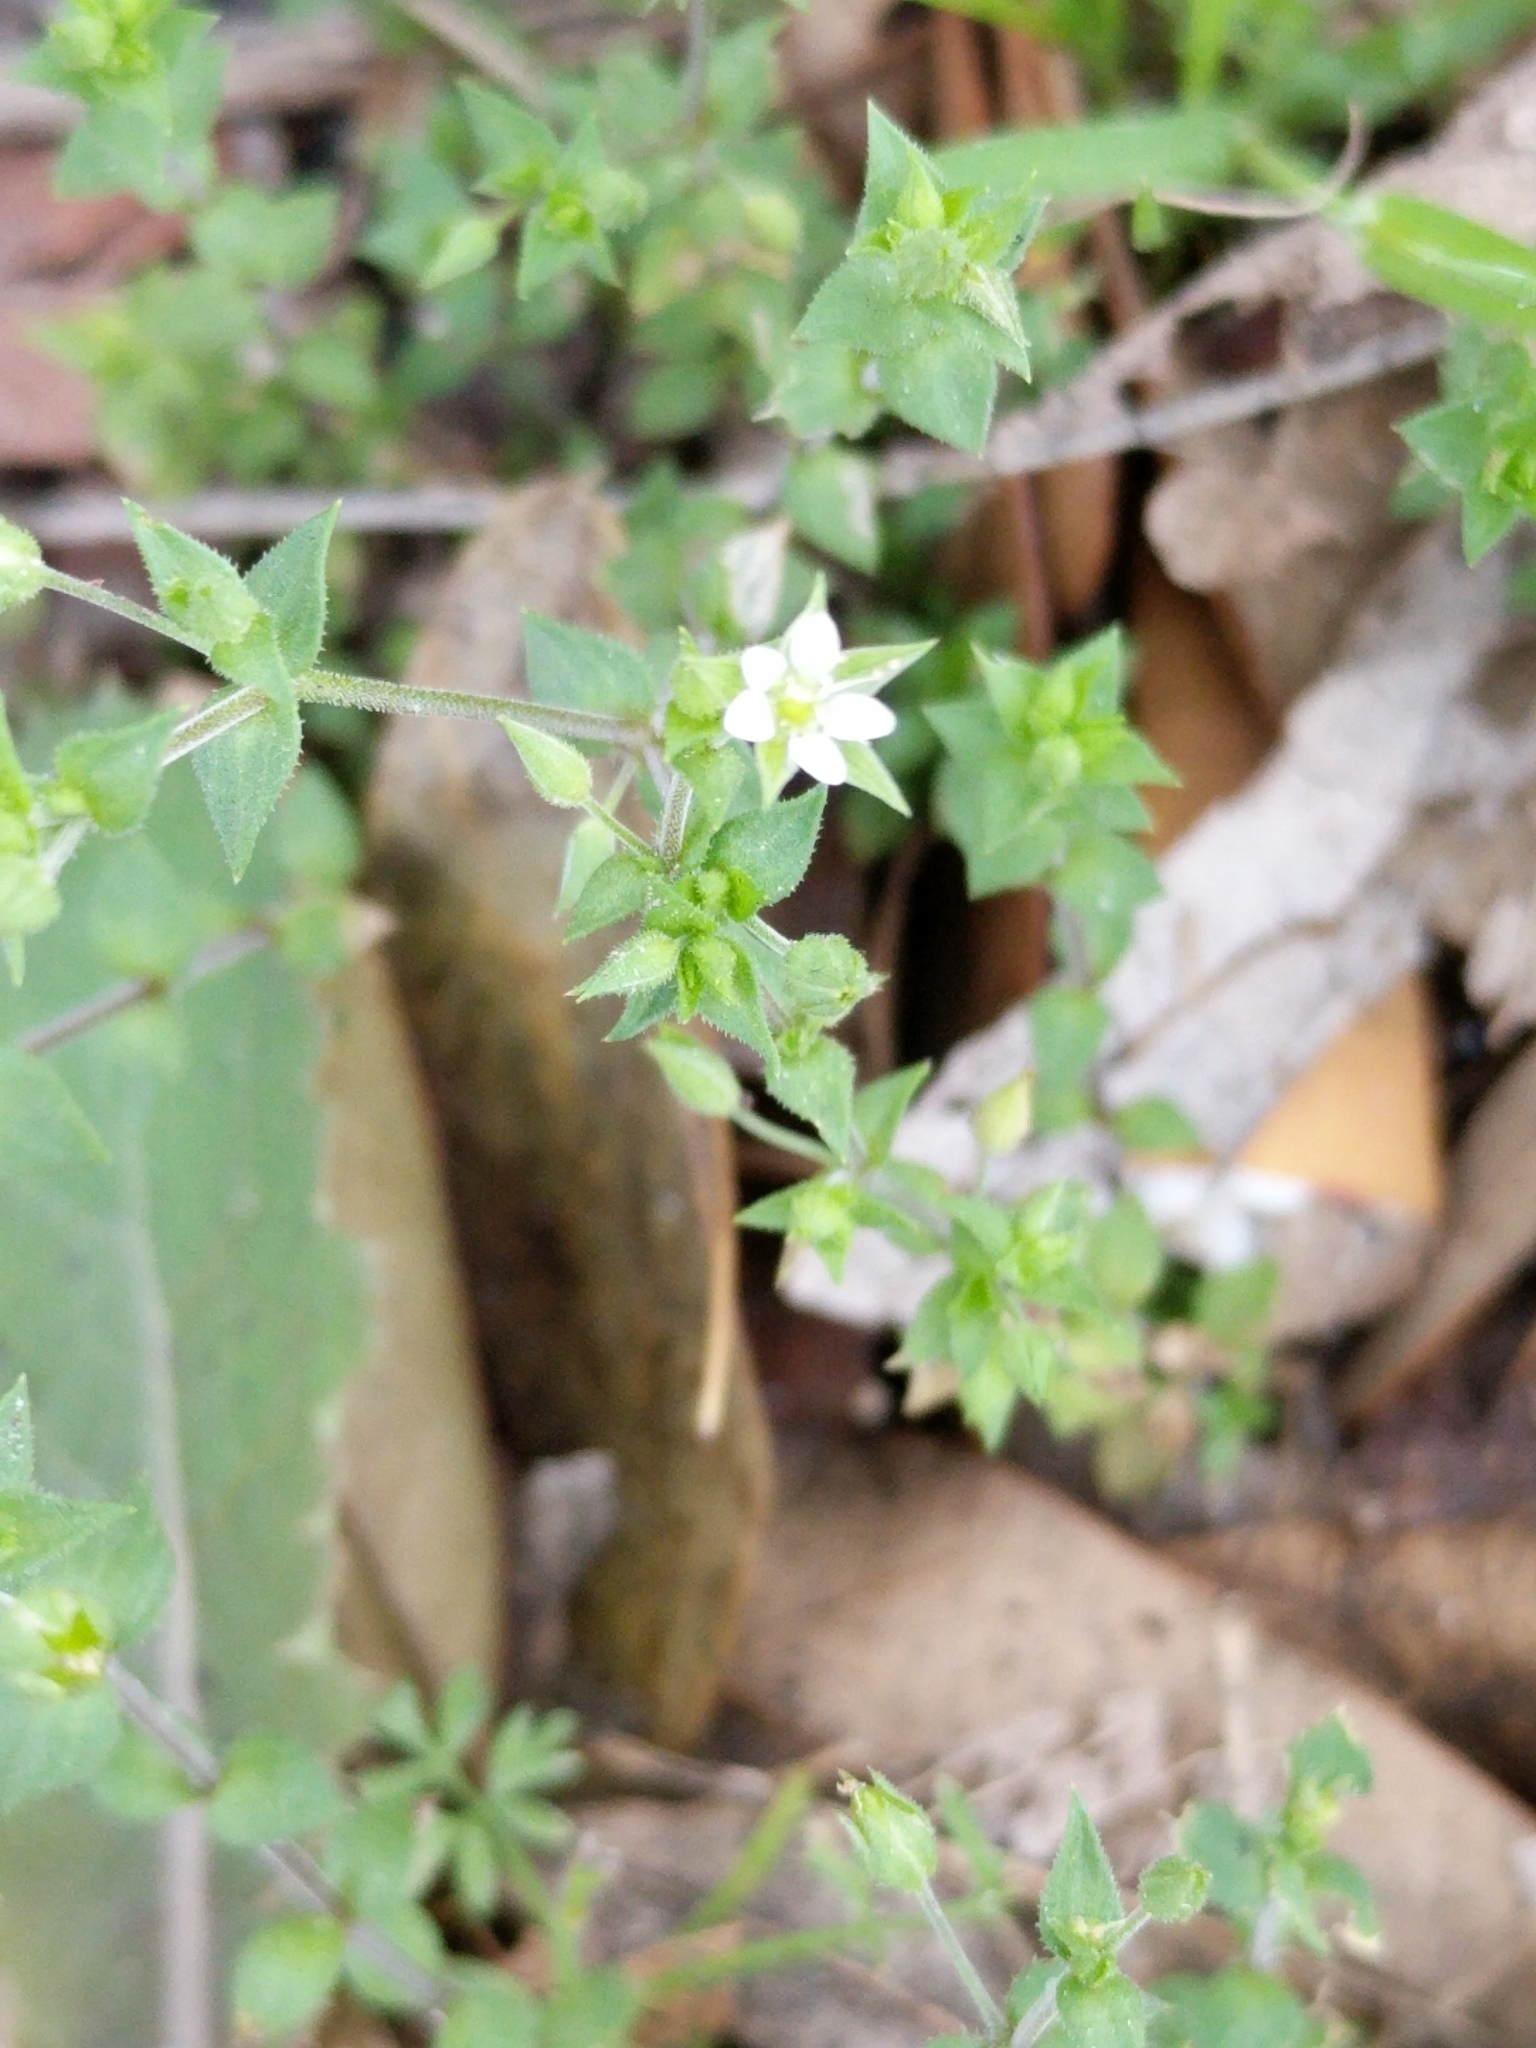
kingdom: Plantae
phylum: Tracheophyta
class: Magnoliopsida
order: Caryophyllales
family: Caryophyllaceae
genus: Arenaria
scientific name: Arenaria serpyllifolia
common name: Thyme-leaved sandwort
